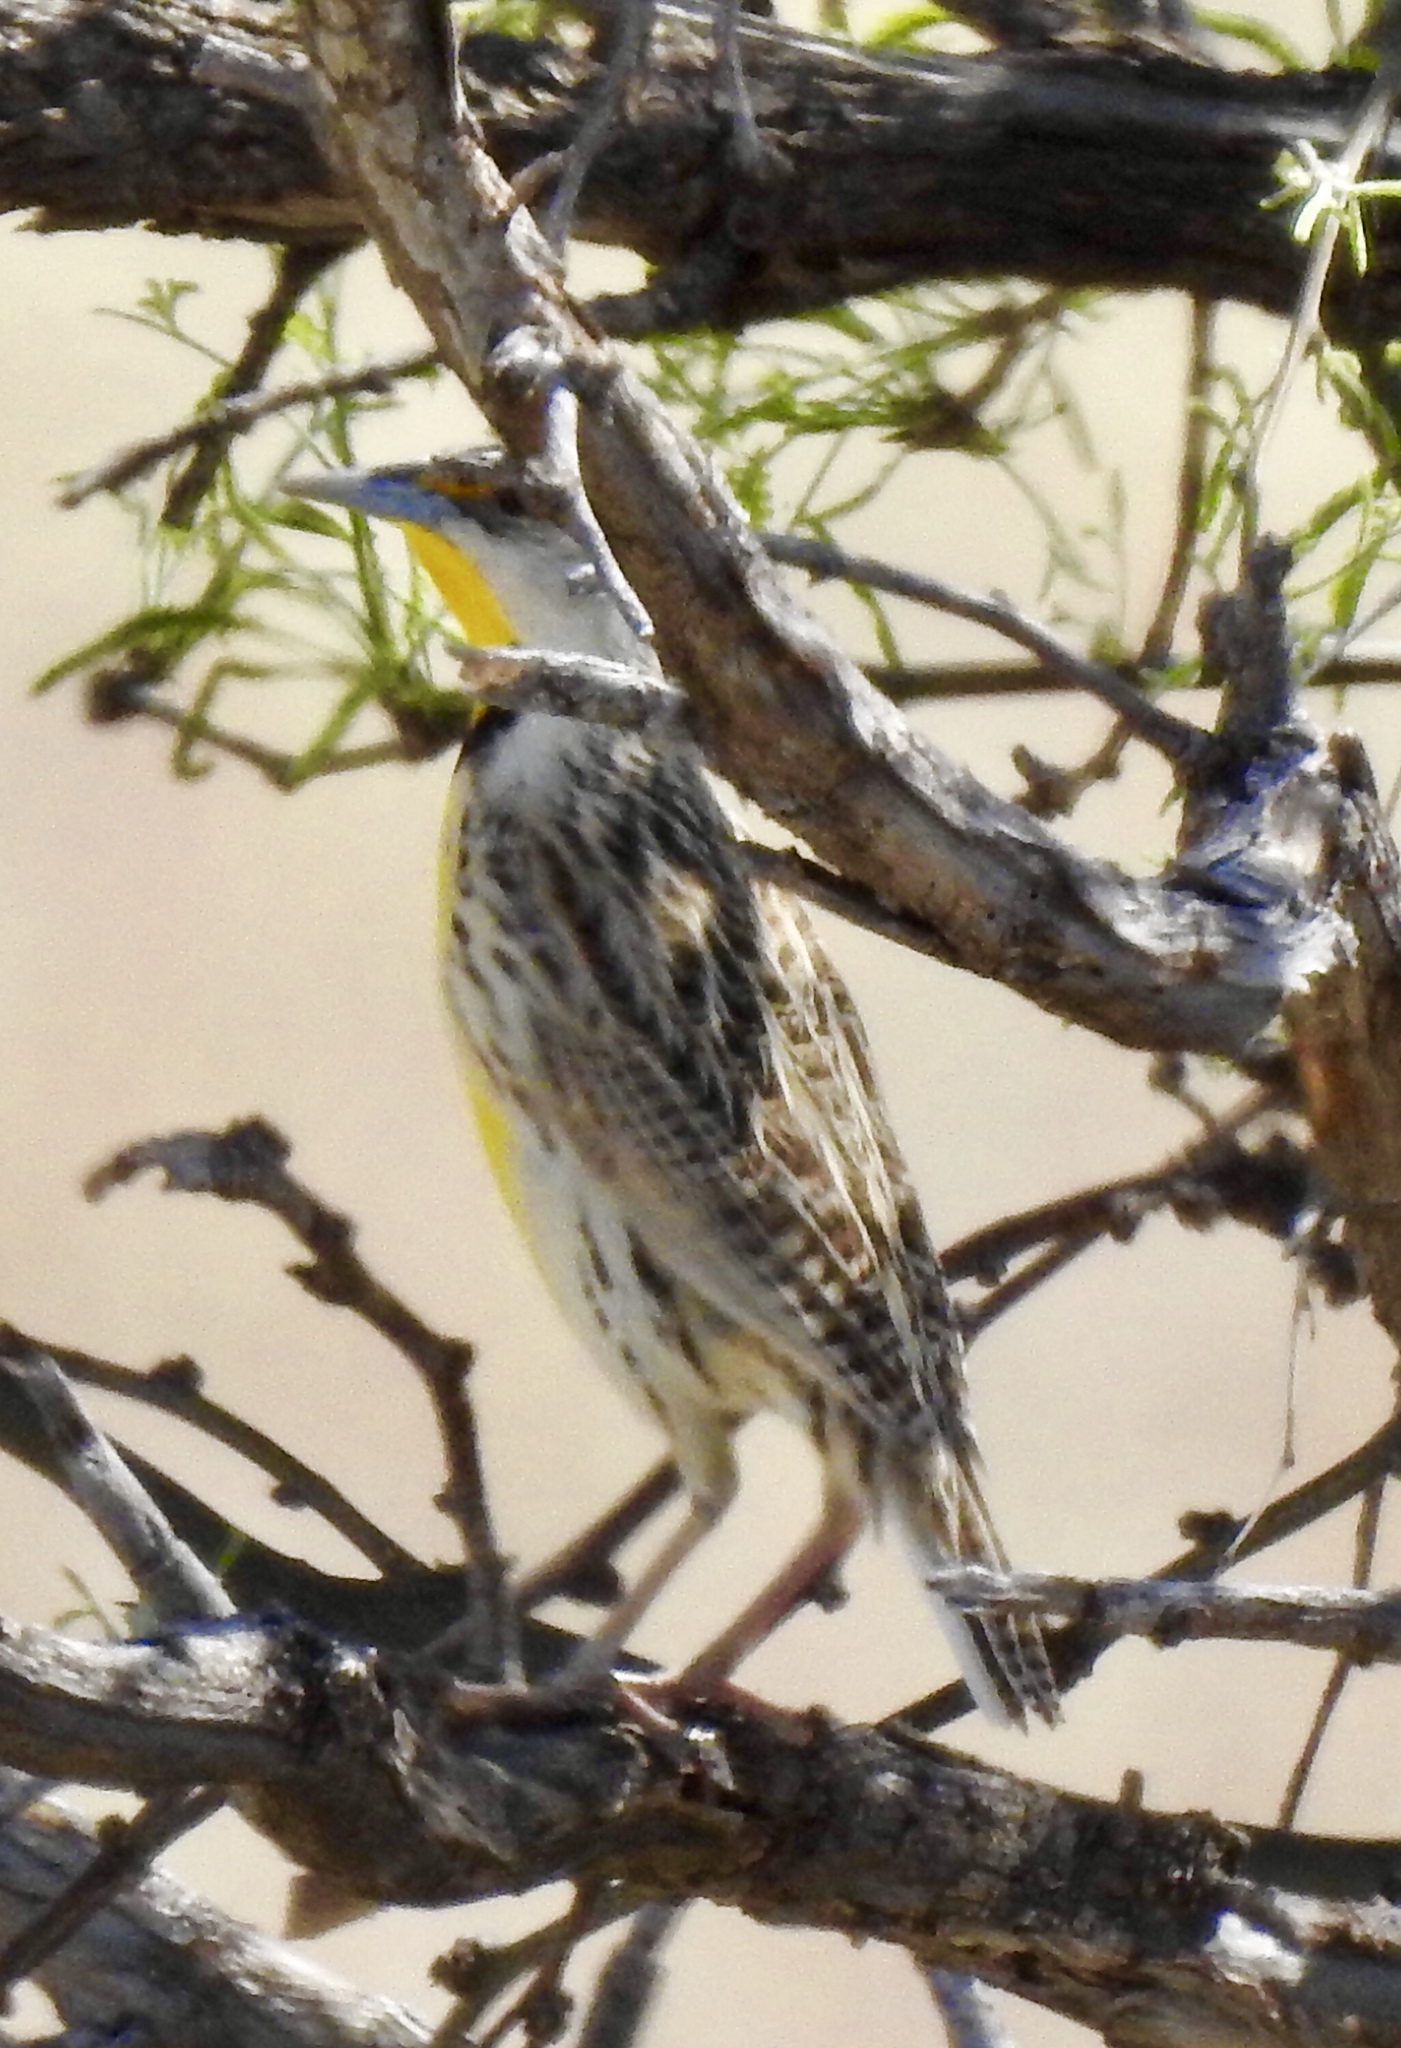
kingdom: Animalia
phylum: Chordata
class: Aves
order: Passeriformes
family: Icteridae
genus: Sturnella
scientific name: Sturnella lilianae
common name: Lilian's meadowlark
